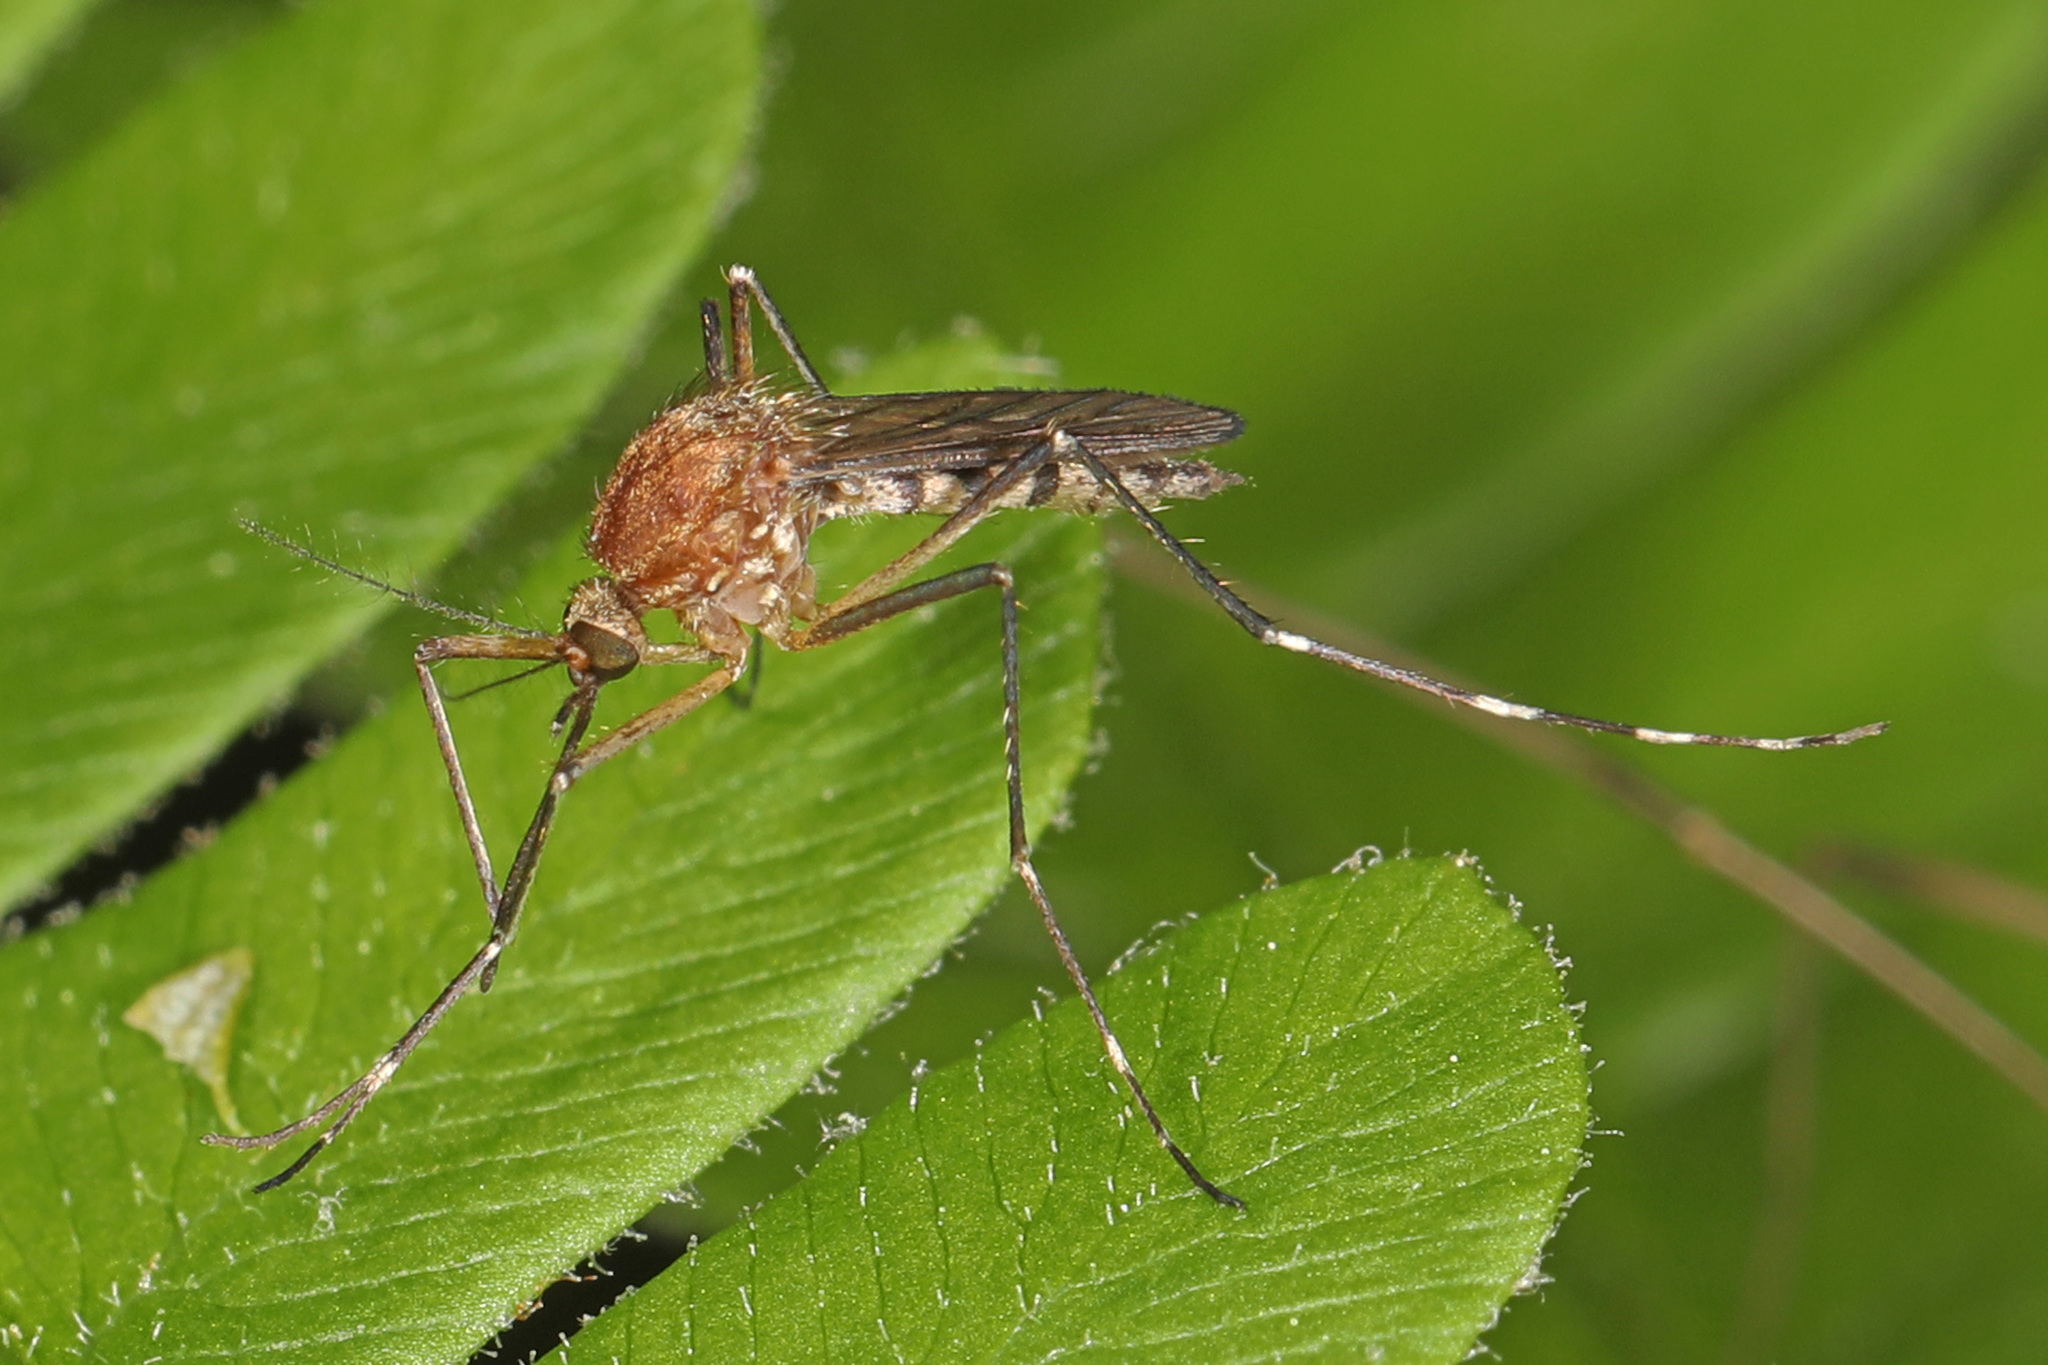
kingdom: Animalia
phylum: Arthropoda
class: Insecta
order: Diptera
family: Culicidae
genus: Aedes
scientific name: Aedes canadensis
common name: Woodland pool mosquito
